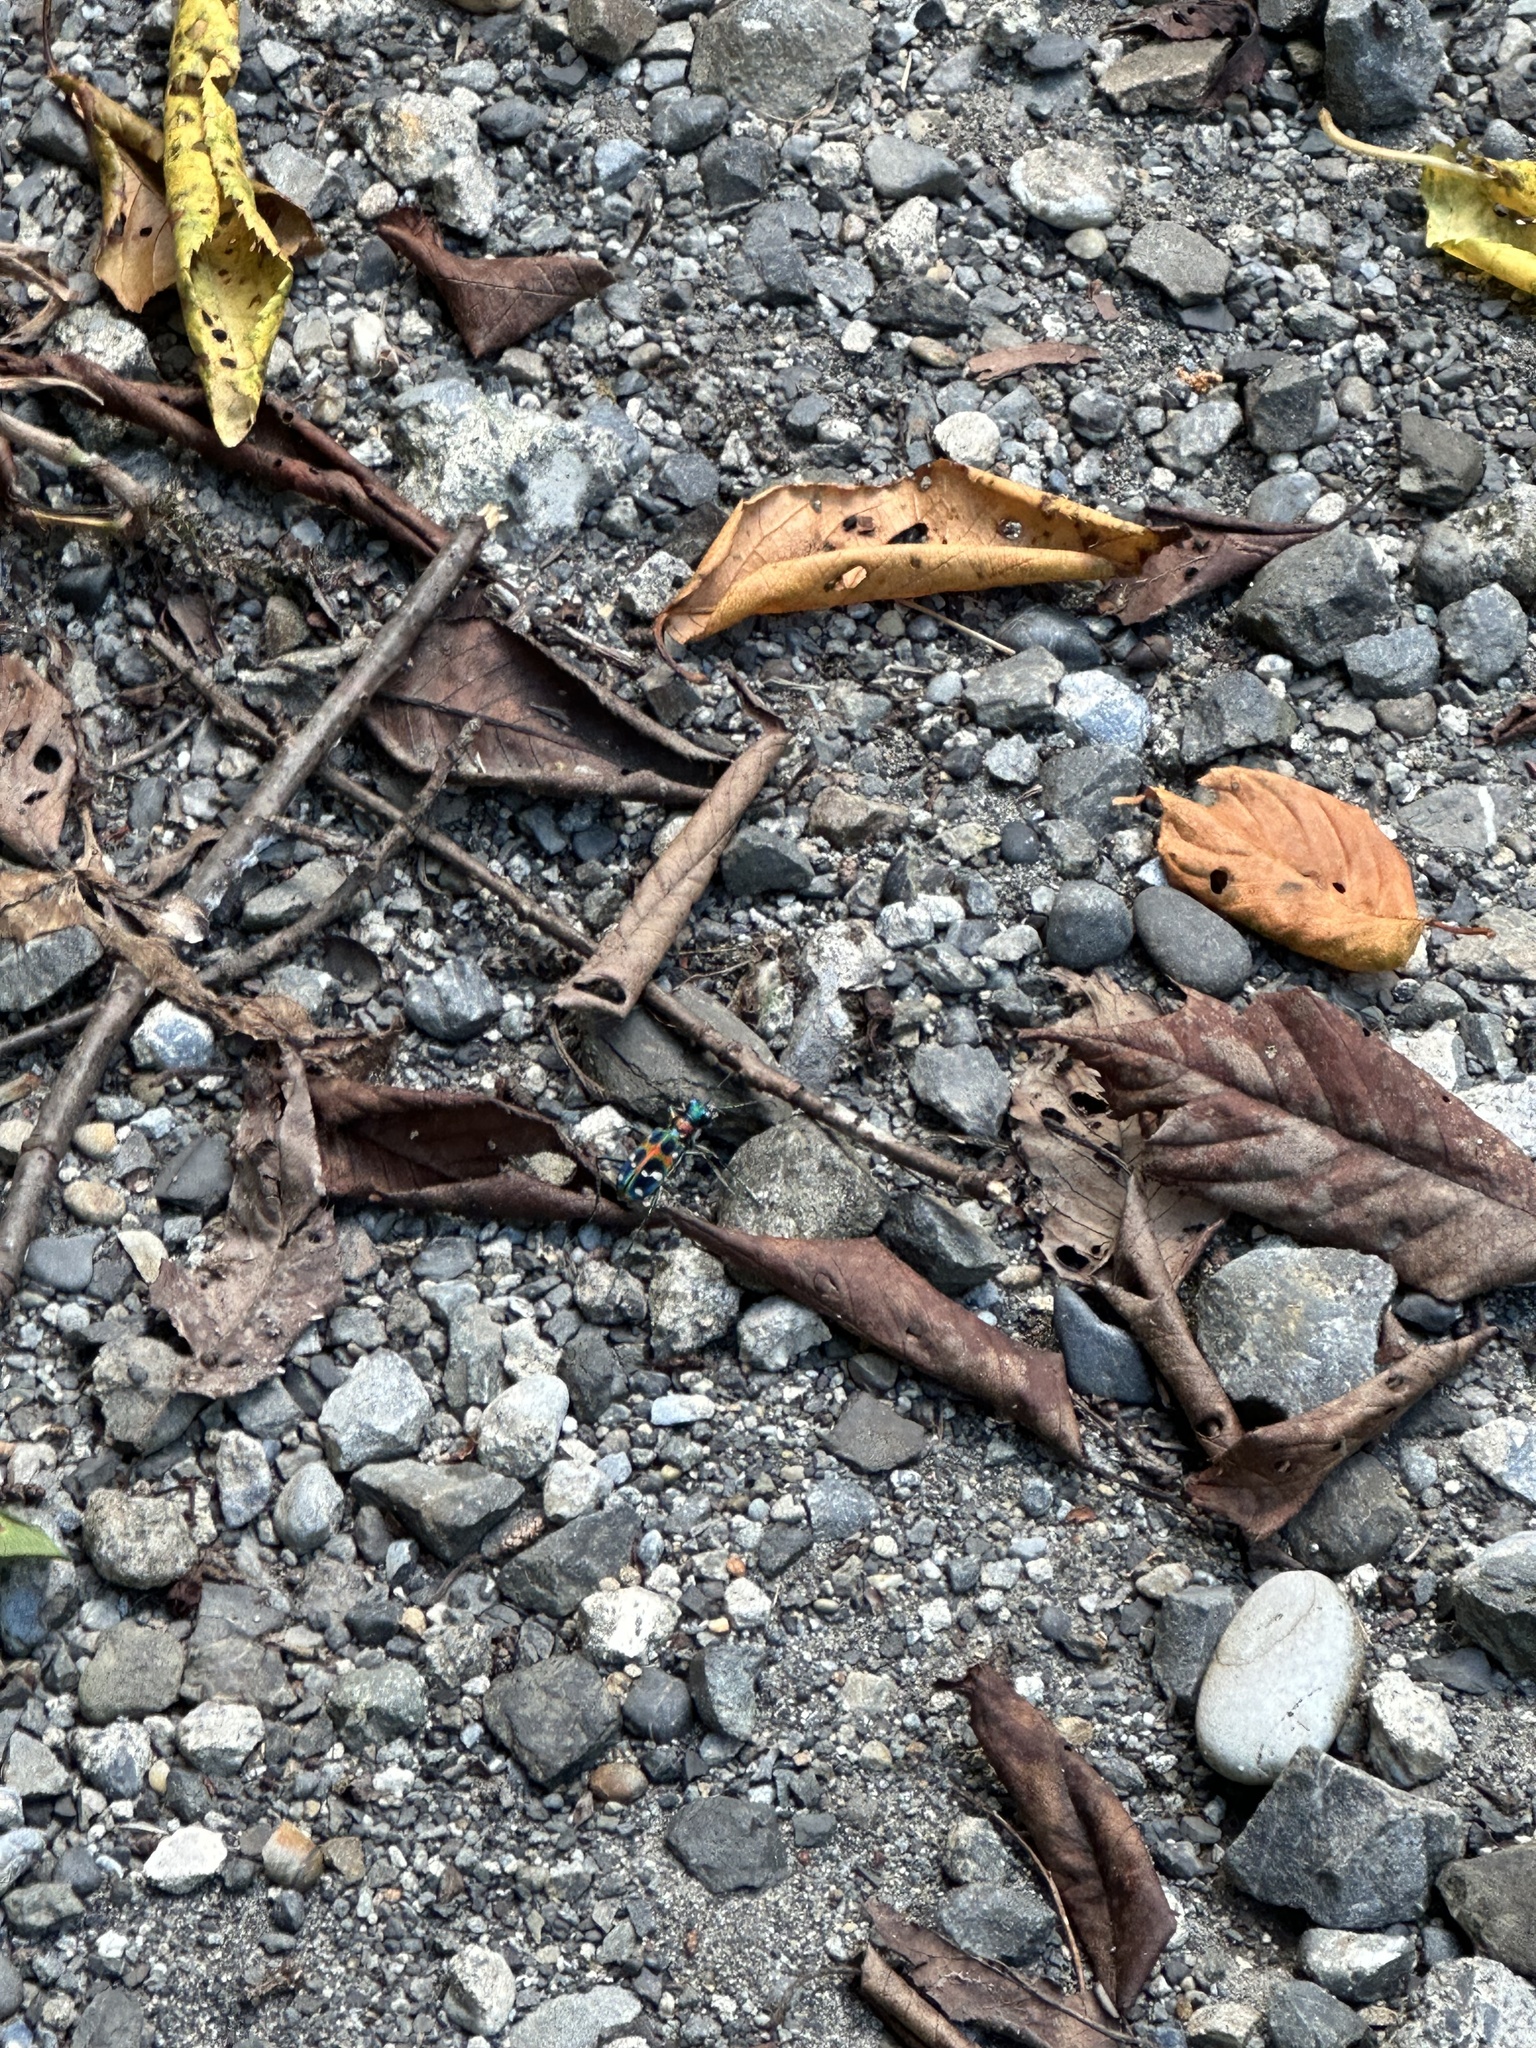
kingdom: Animalia
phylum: Arthropoda
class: Insecta
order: Coleoptera
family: Carabidae
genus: Cicindela
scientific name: Cicindela chinensis
